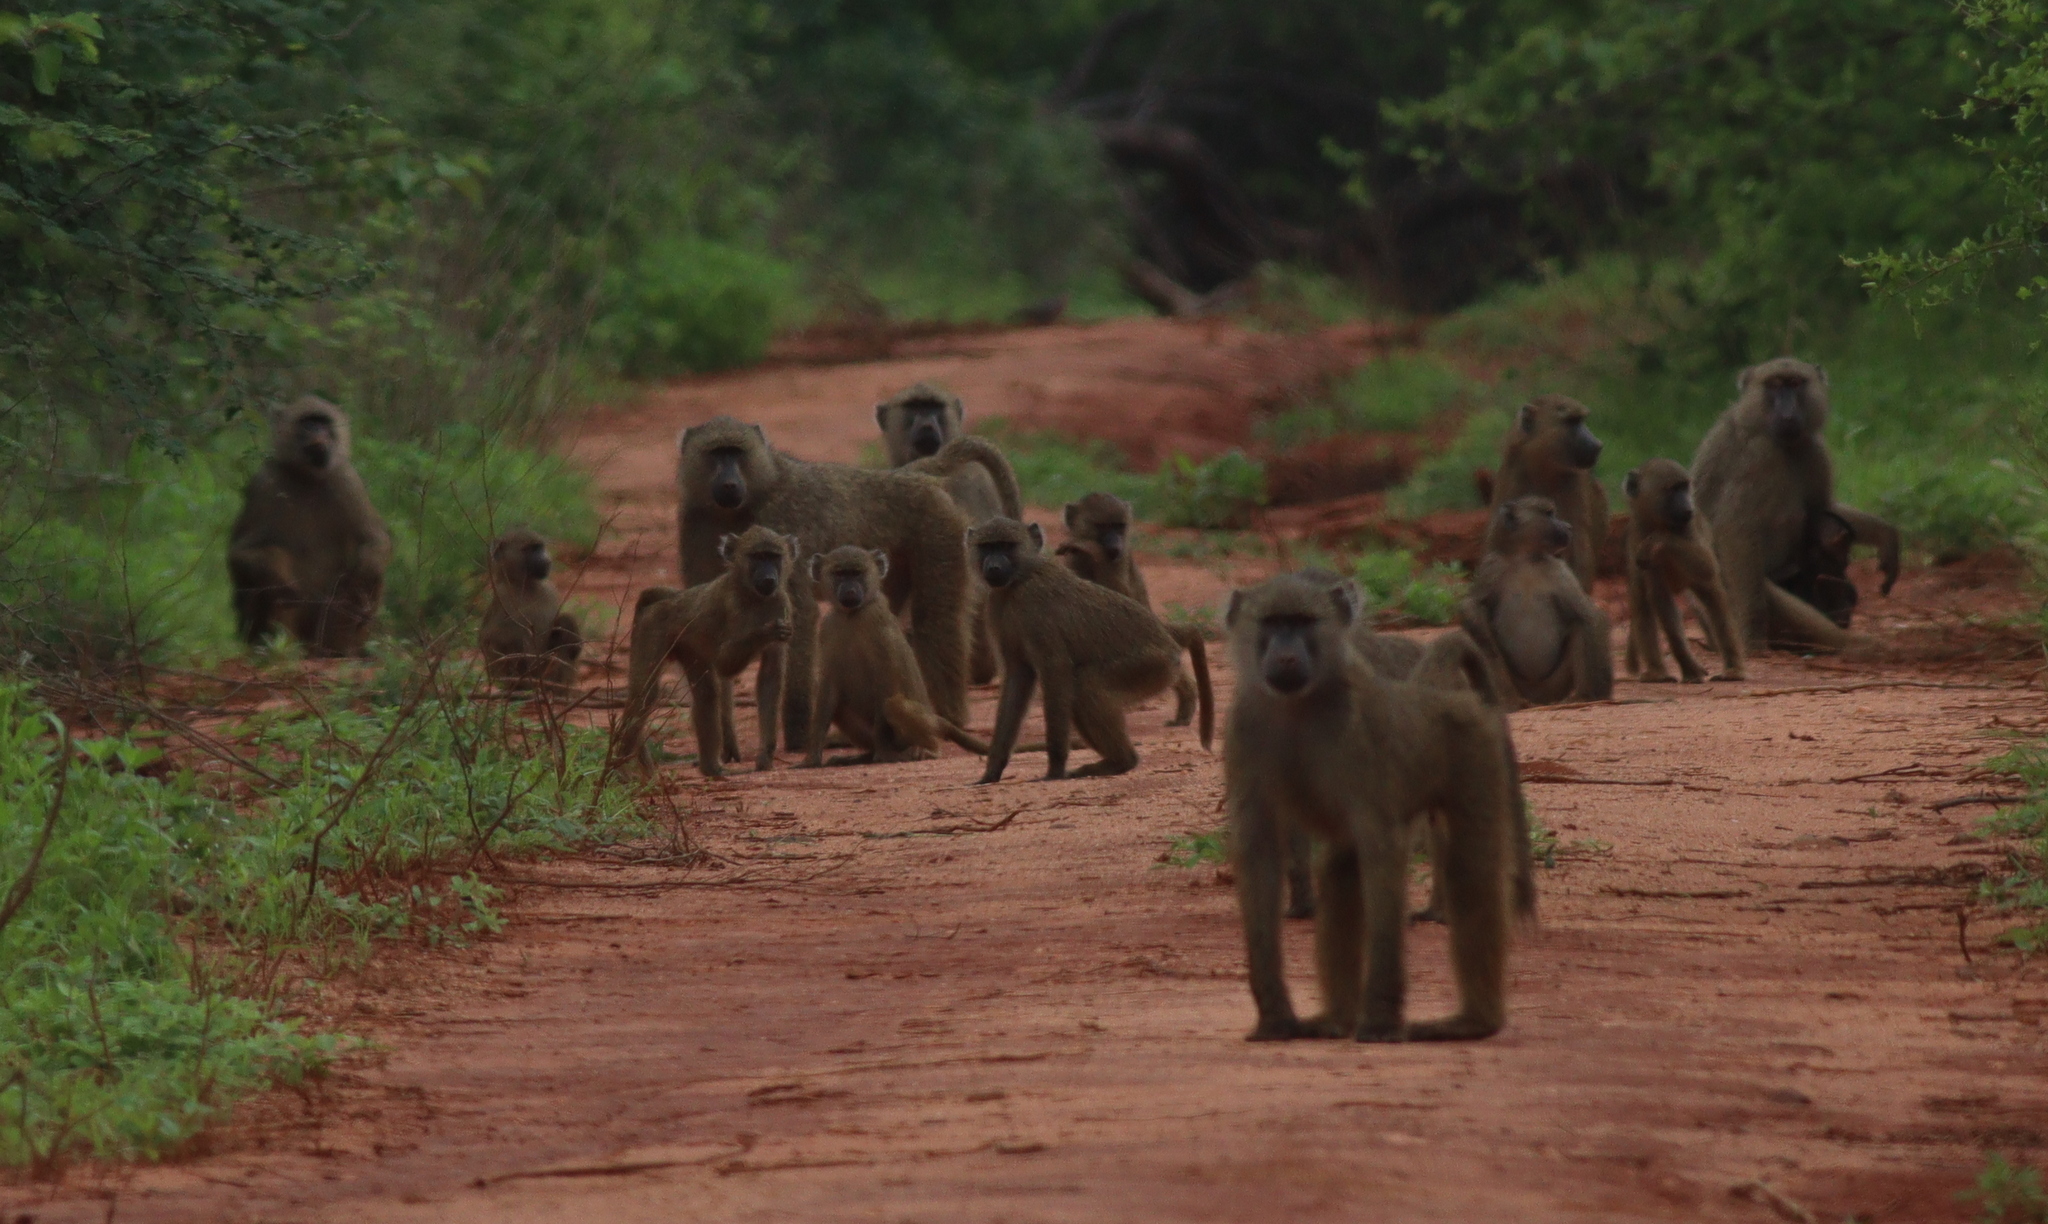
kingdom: Animalia
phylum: Chordata
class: Mammalia
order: Primates
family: Cercopithecidae
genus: Papio
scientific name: Papio anubis
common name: Olive baboon
